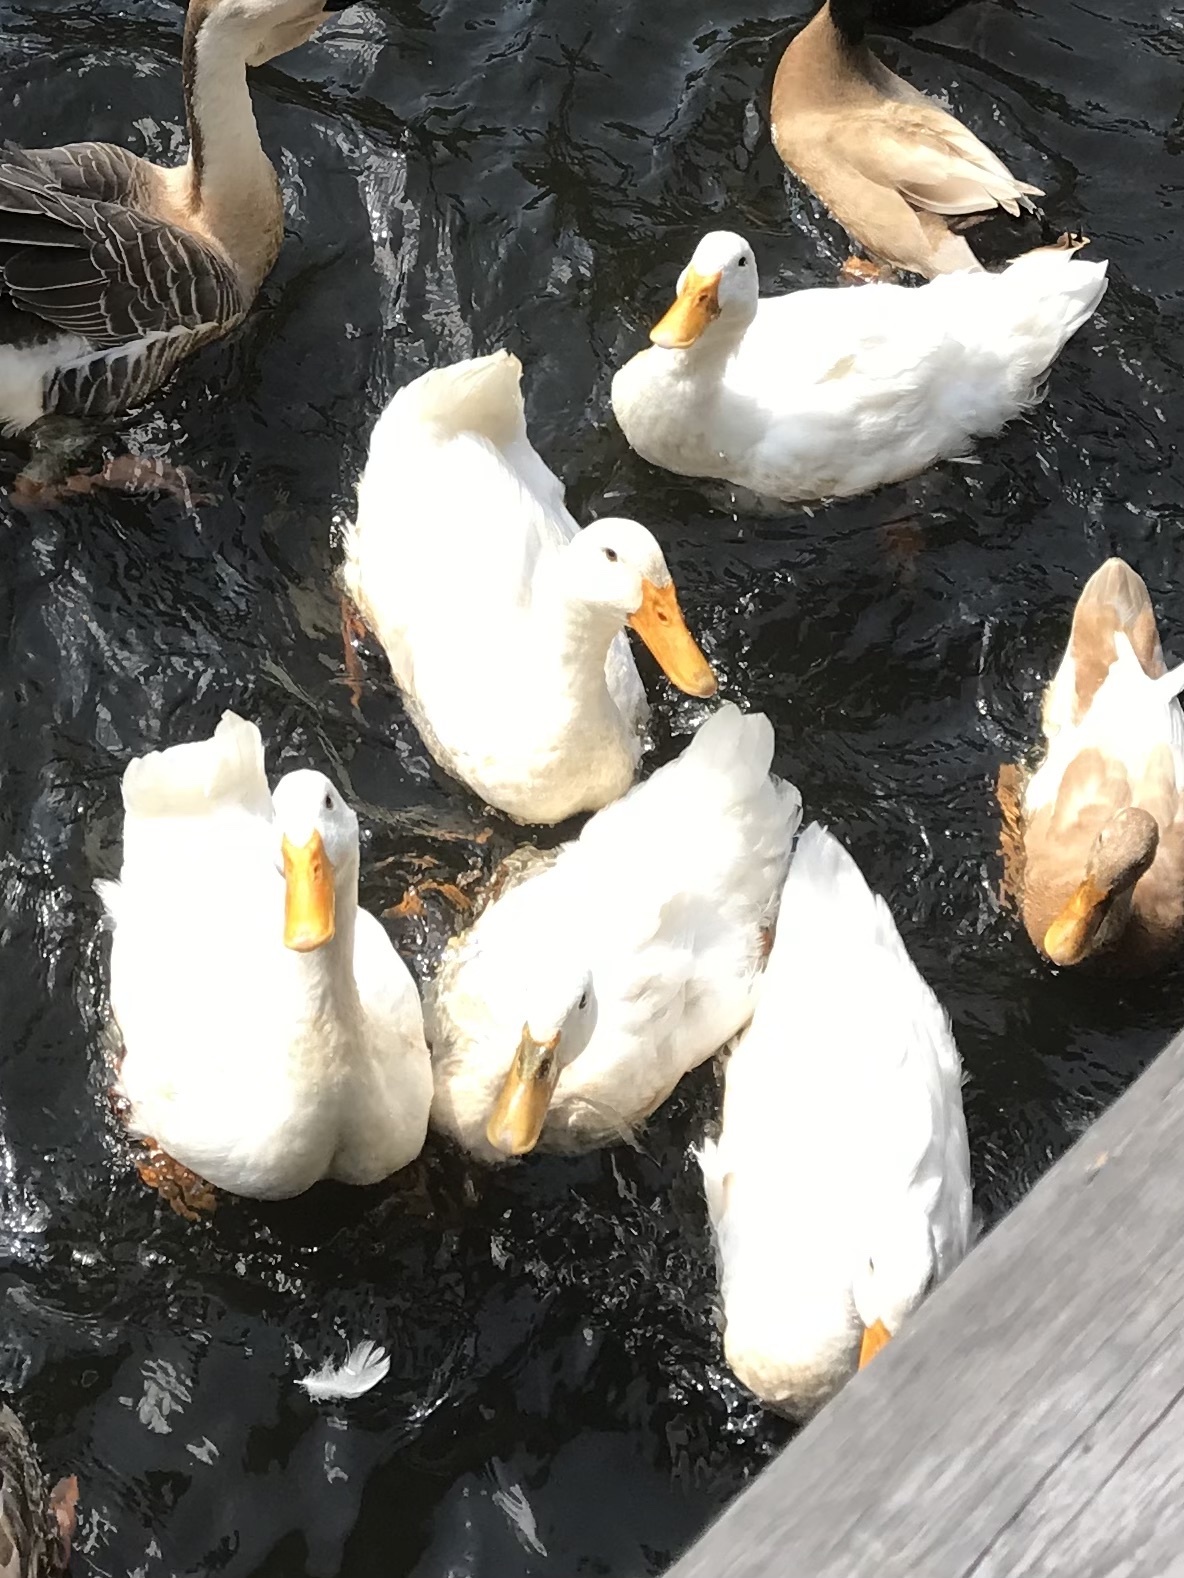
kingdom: Animalia
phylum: Chordata
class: Aves
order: Anseriformes
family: Anatidae
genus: Anas
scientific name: Anas platyrhynchos
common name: Mallard
